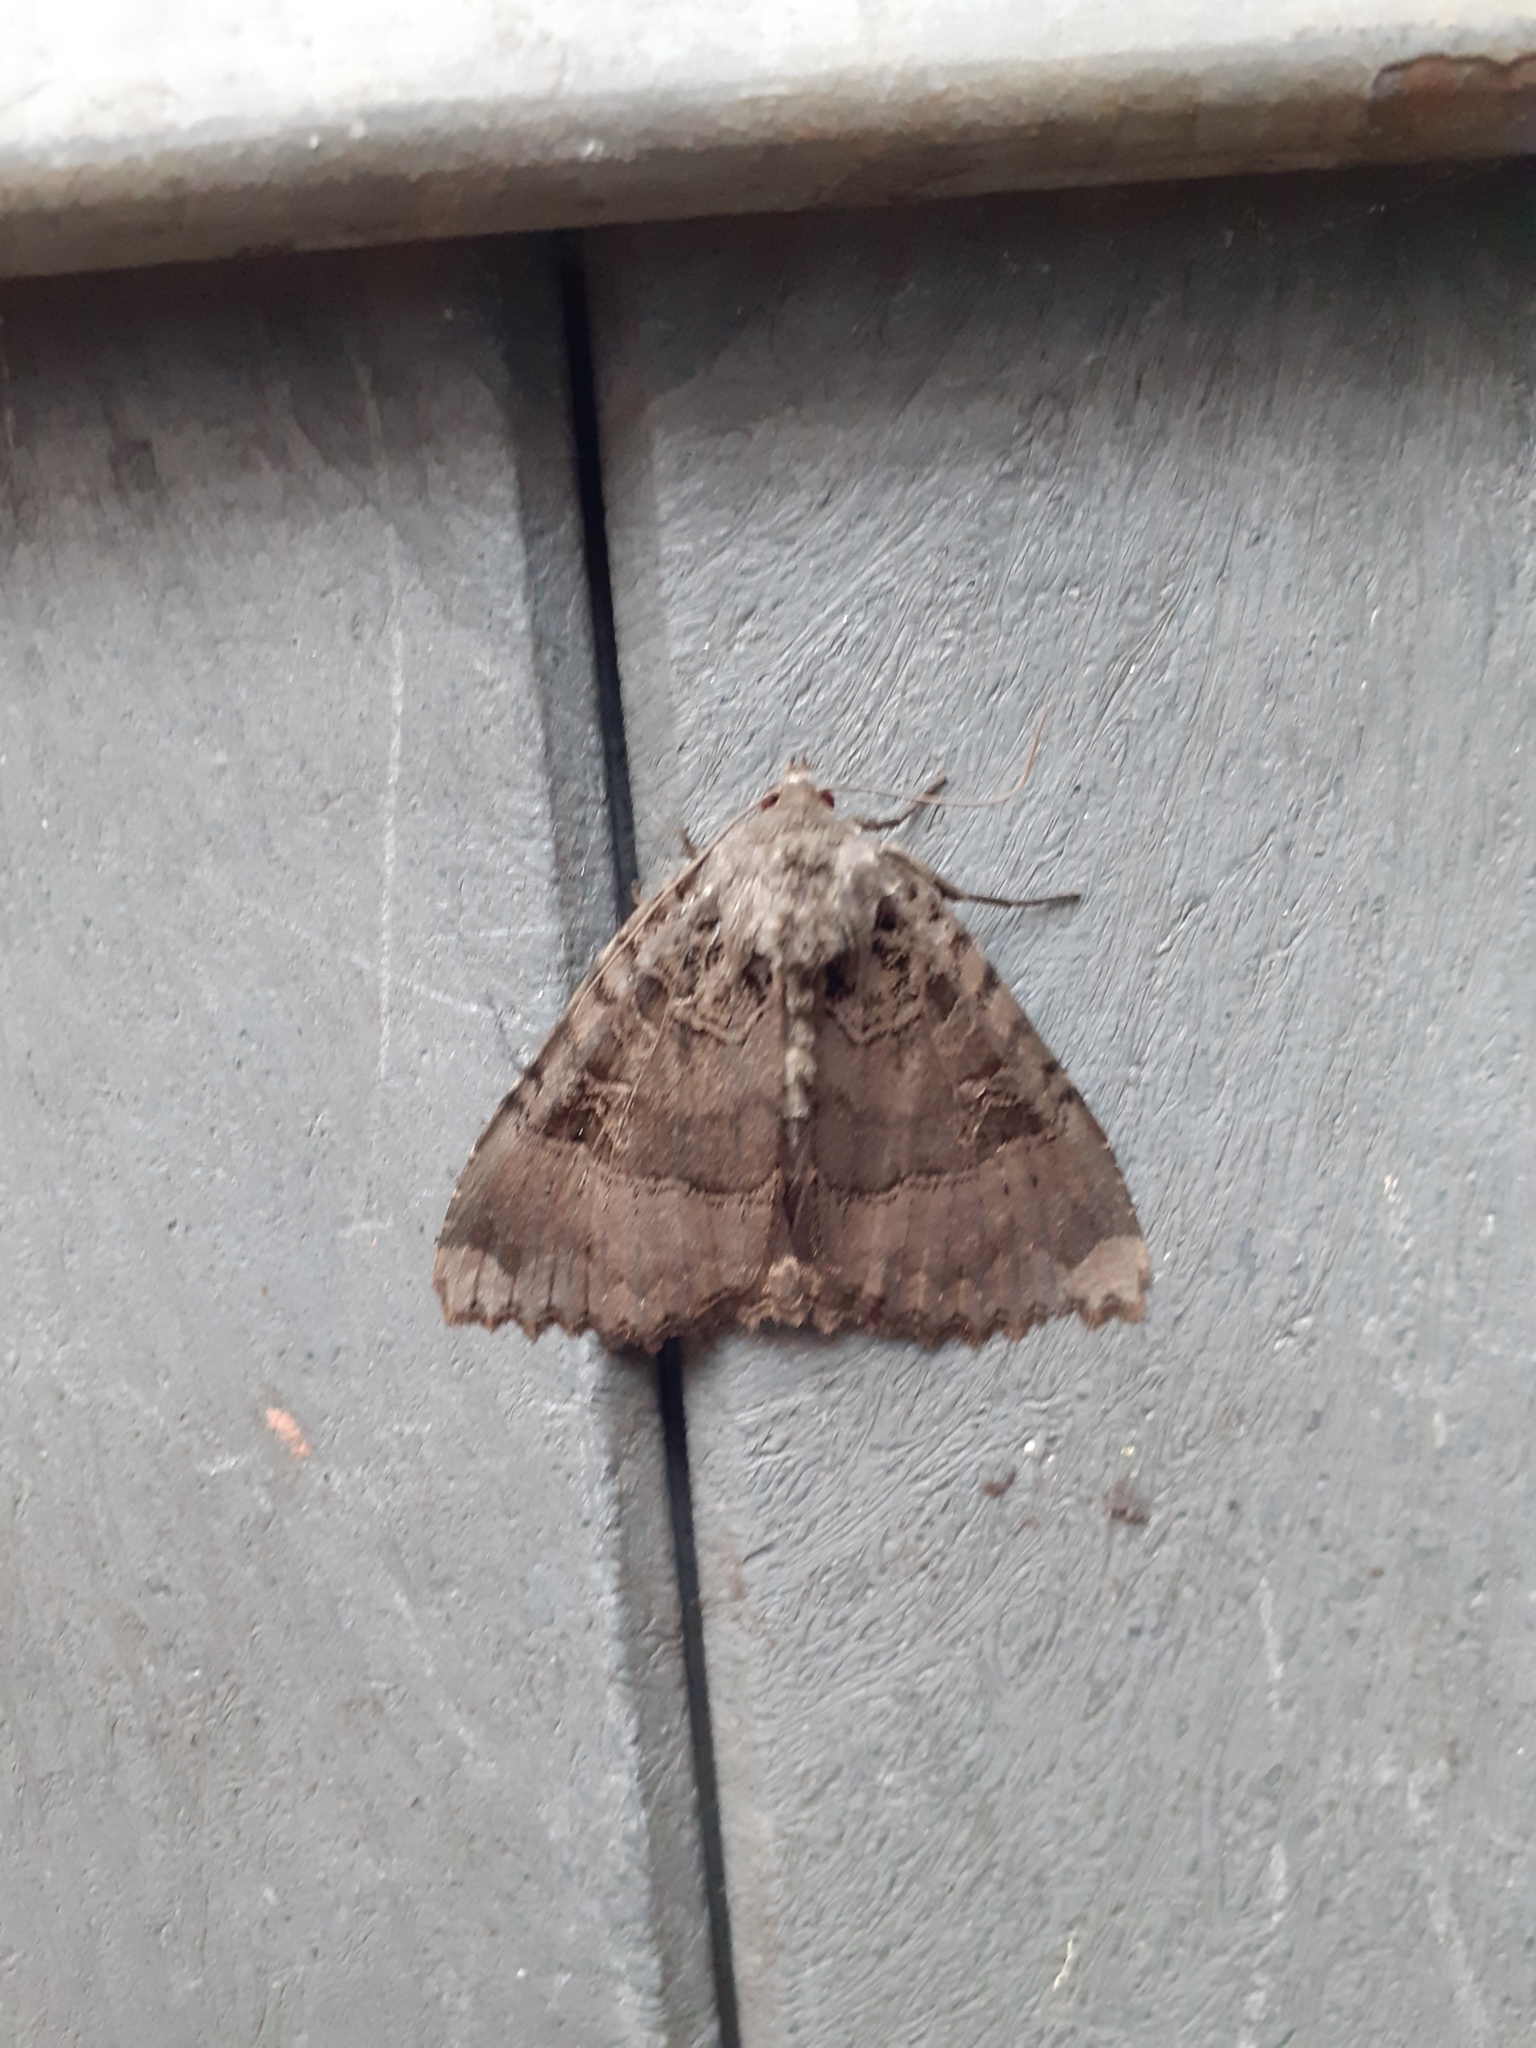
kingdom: Animalia
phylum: Arthropoda
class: Insecta
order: Lepidoptera
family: Noctuidae
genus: Mormo
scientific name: Mormo maura
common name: Old lady
